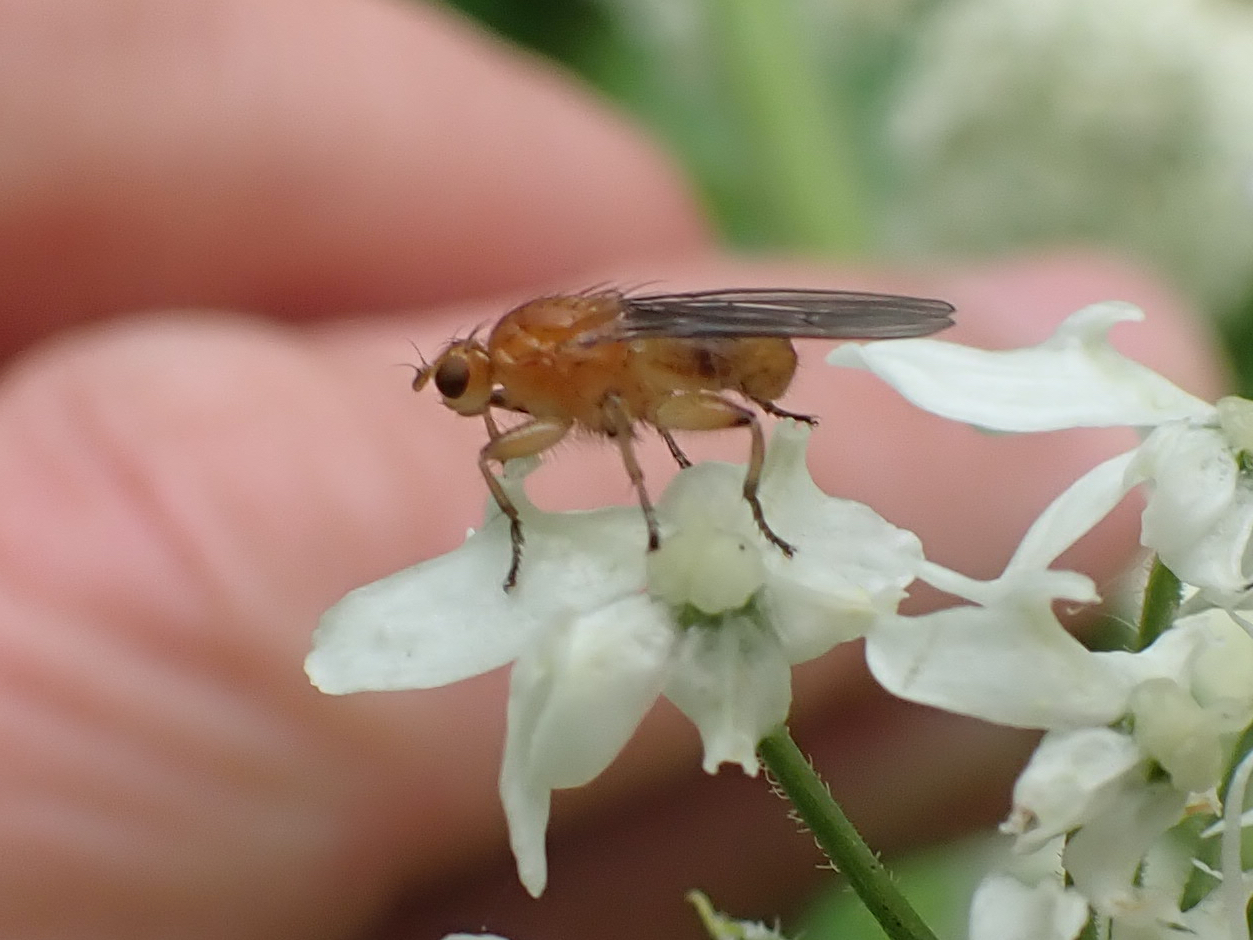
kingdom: Animalia
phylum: Arthropoda
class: Insecta
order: Diptera
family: Heleomyzidae
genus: Suillia
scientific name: Suillia convergens
